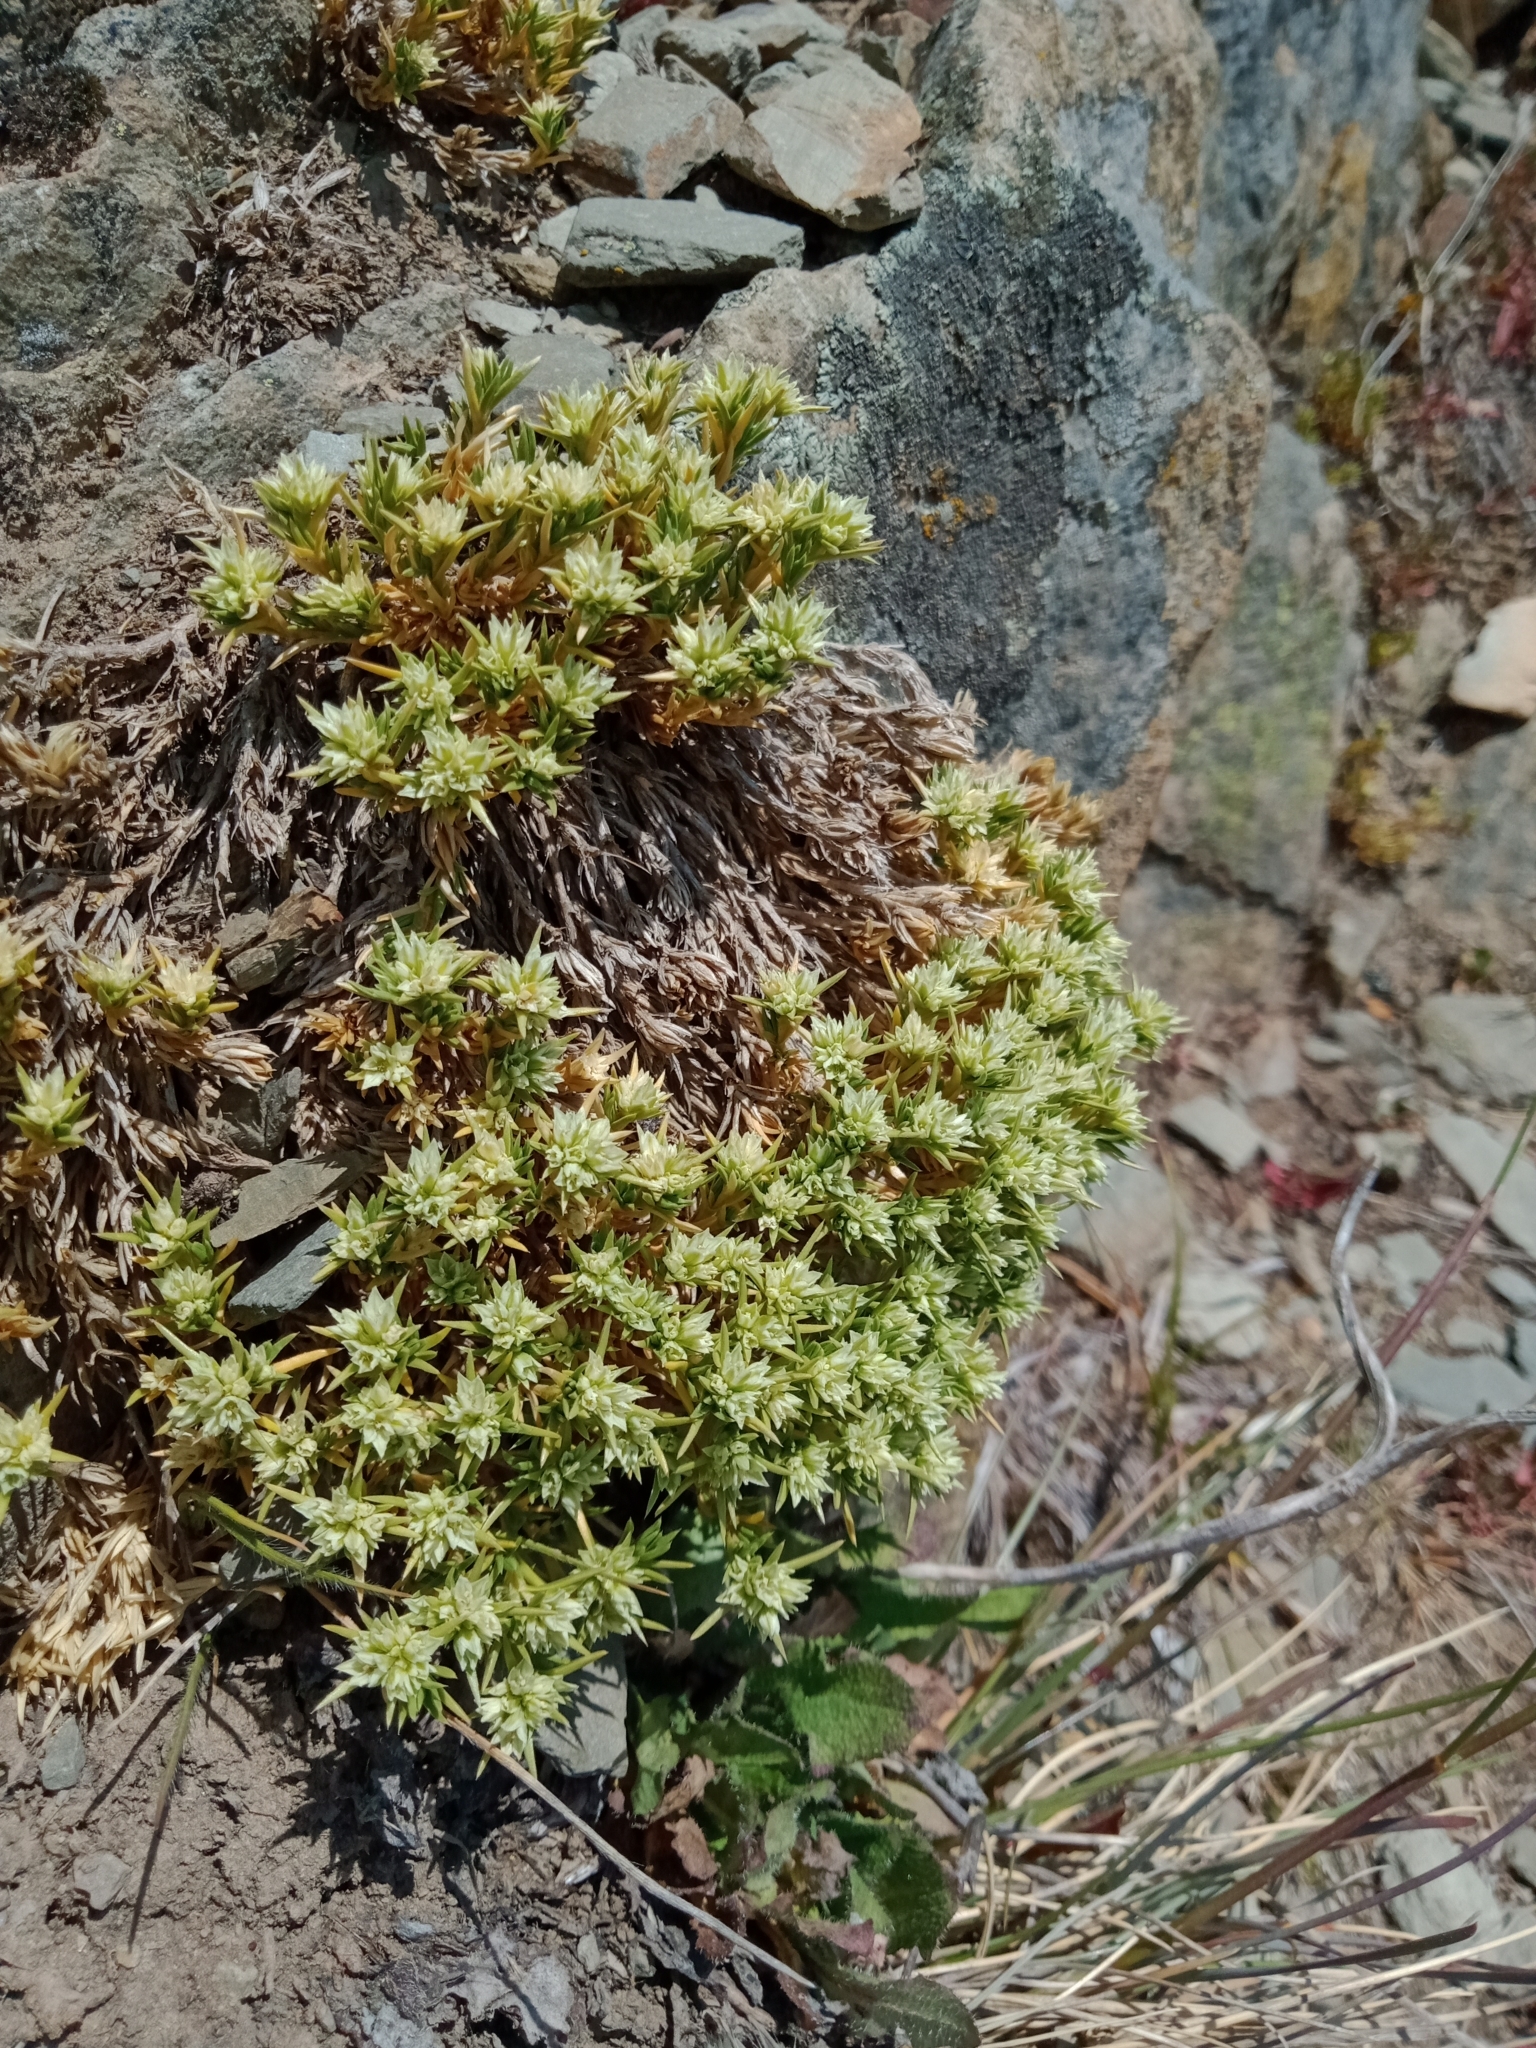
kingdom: Plantae
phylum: Tracheophyta
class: Magnoliopsida
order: Caryophyllales
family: Caryophyllaceae
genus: Scleranthus
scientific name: Scleranthus diander
